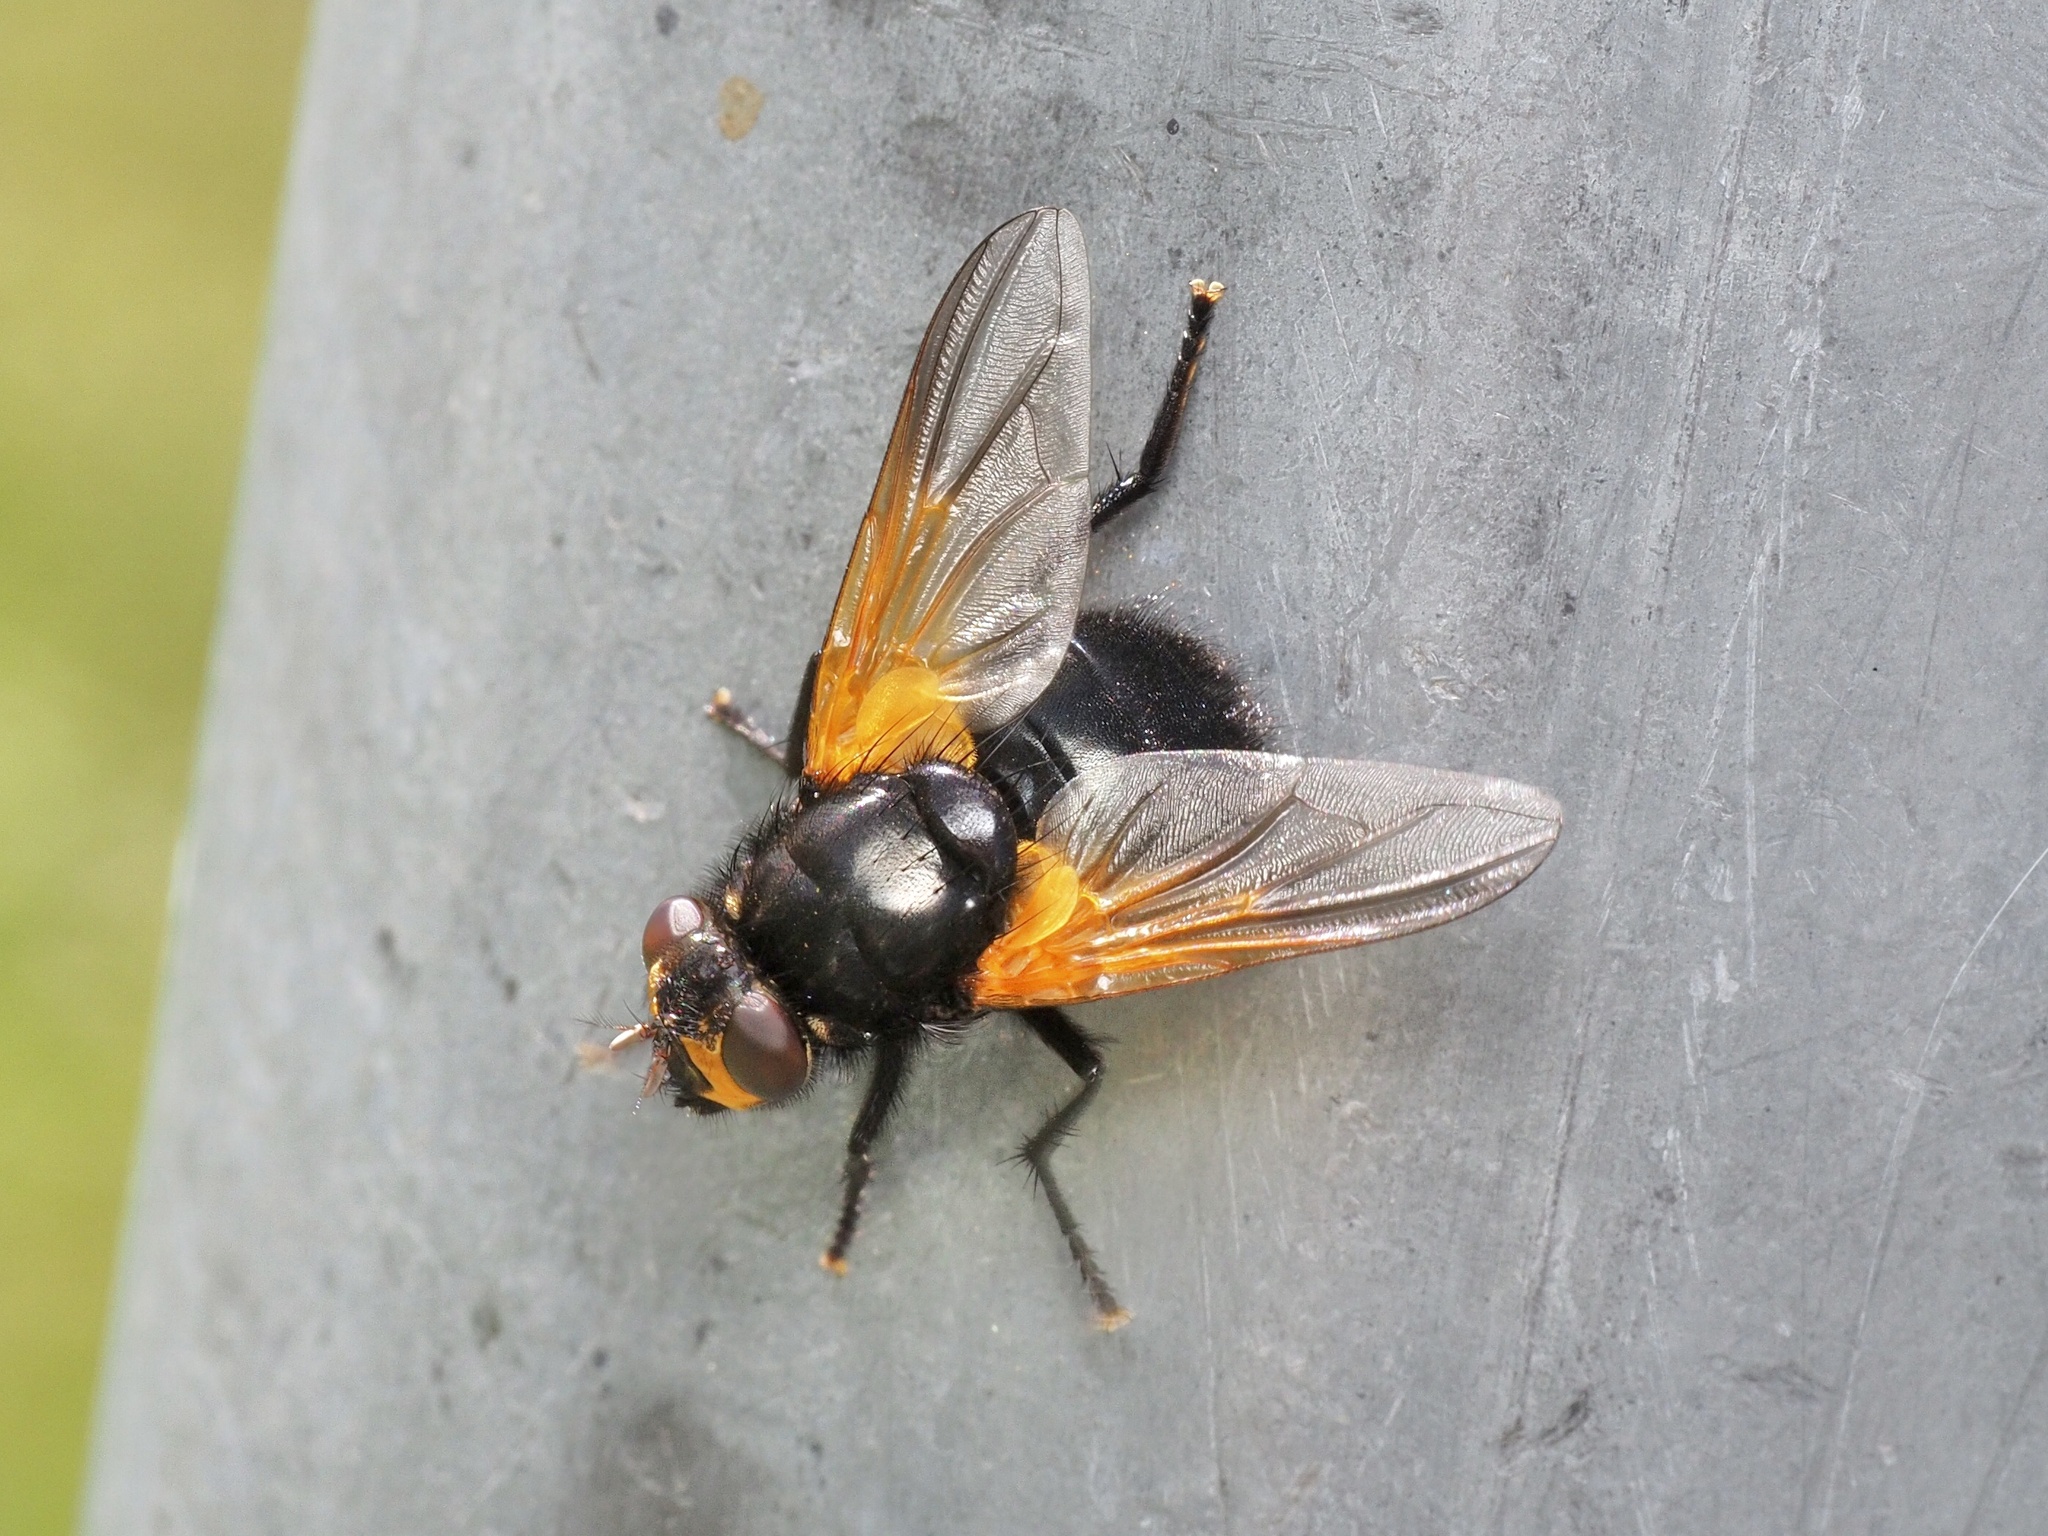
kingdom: Animalia
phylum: Arthropoda
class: Insecta
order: Diptera
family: Muscidae
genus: Mesembrina
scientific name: Mesembrina meridiana
